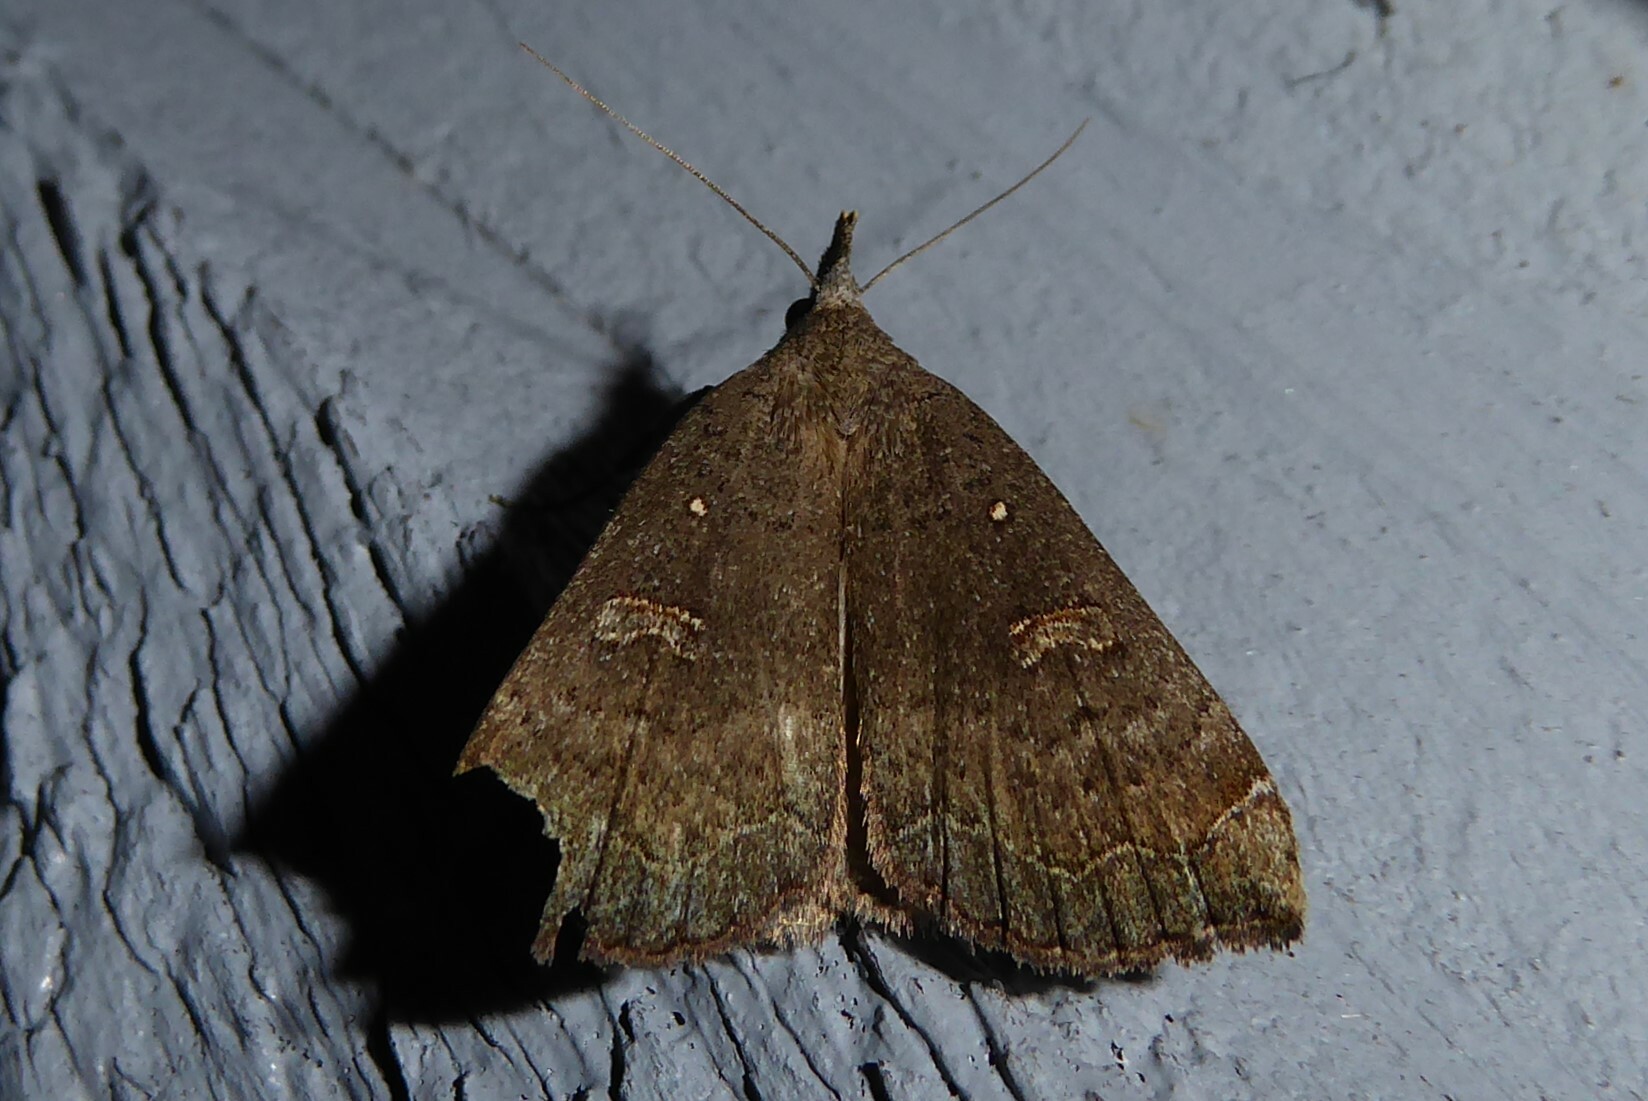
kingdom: Animalia
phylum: Arthropoda
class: Insecta
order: Lepidoptera
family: Erebidae
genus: Rhapsa
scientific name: Rhapsa scotosialis
